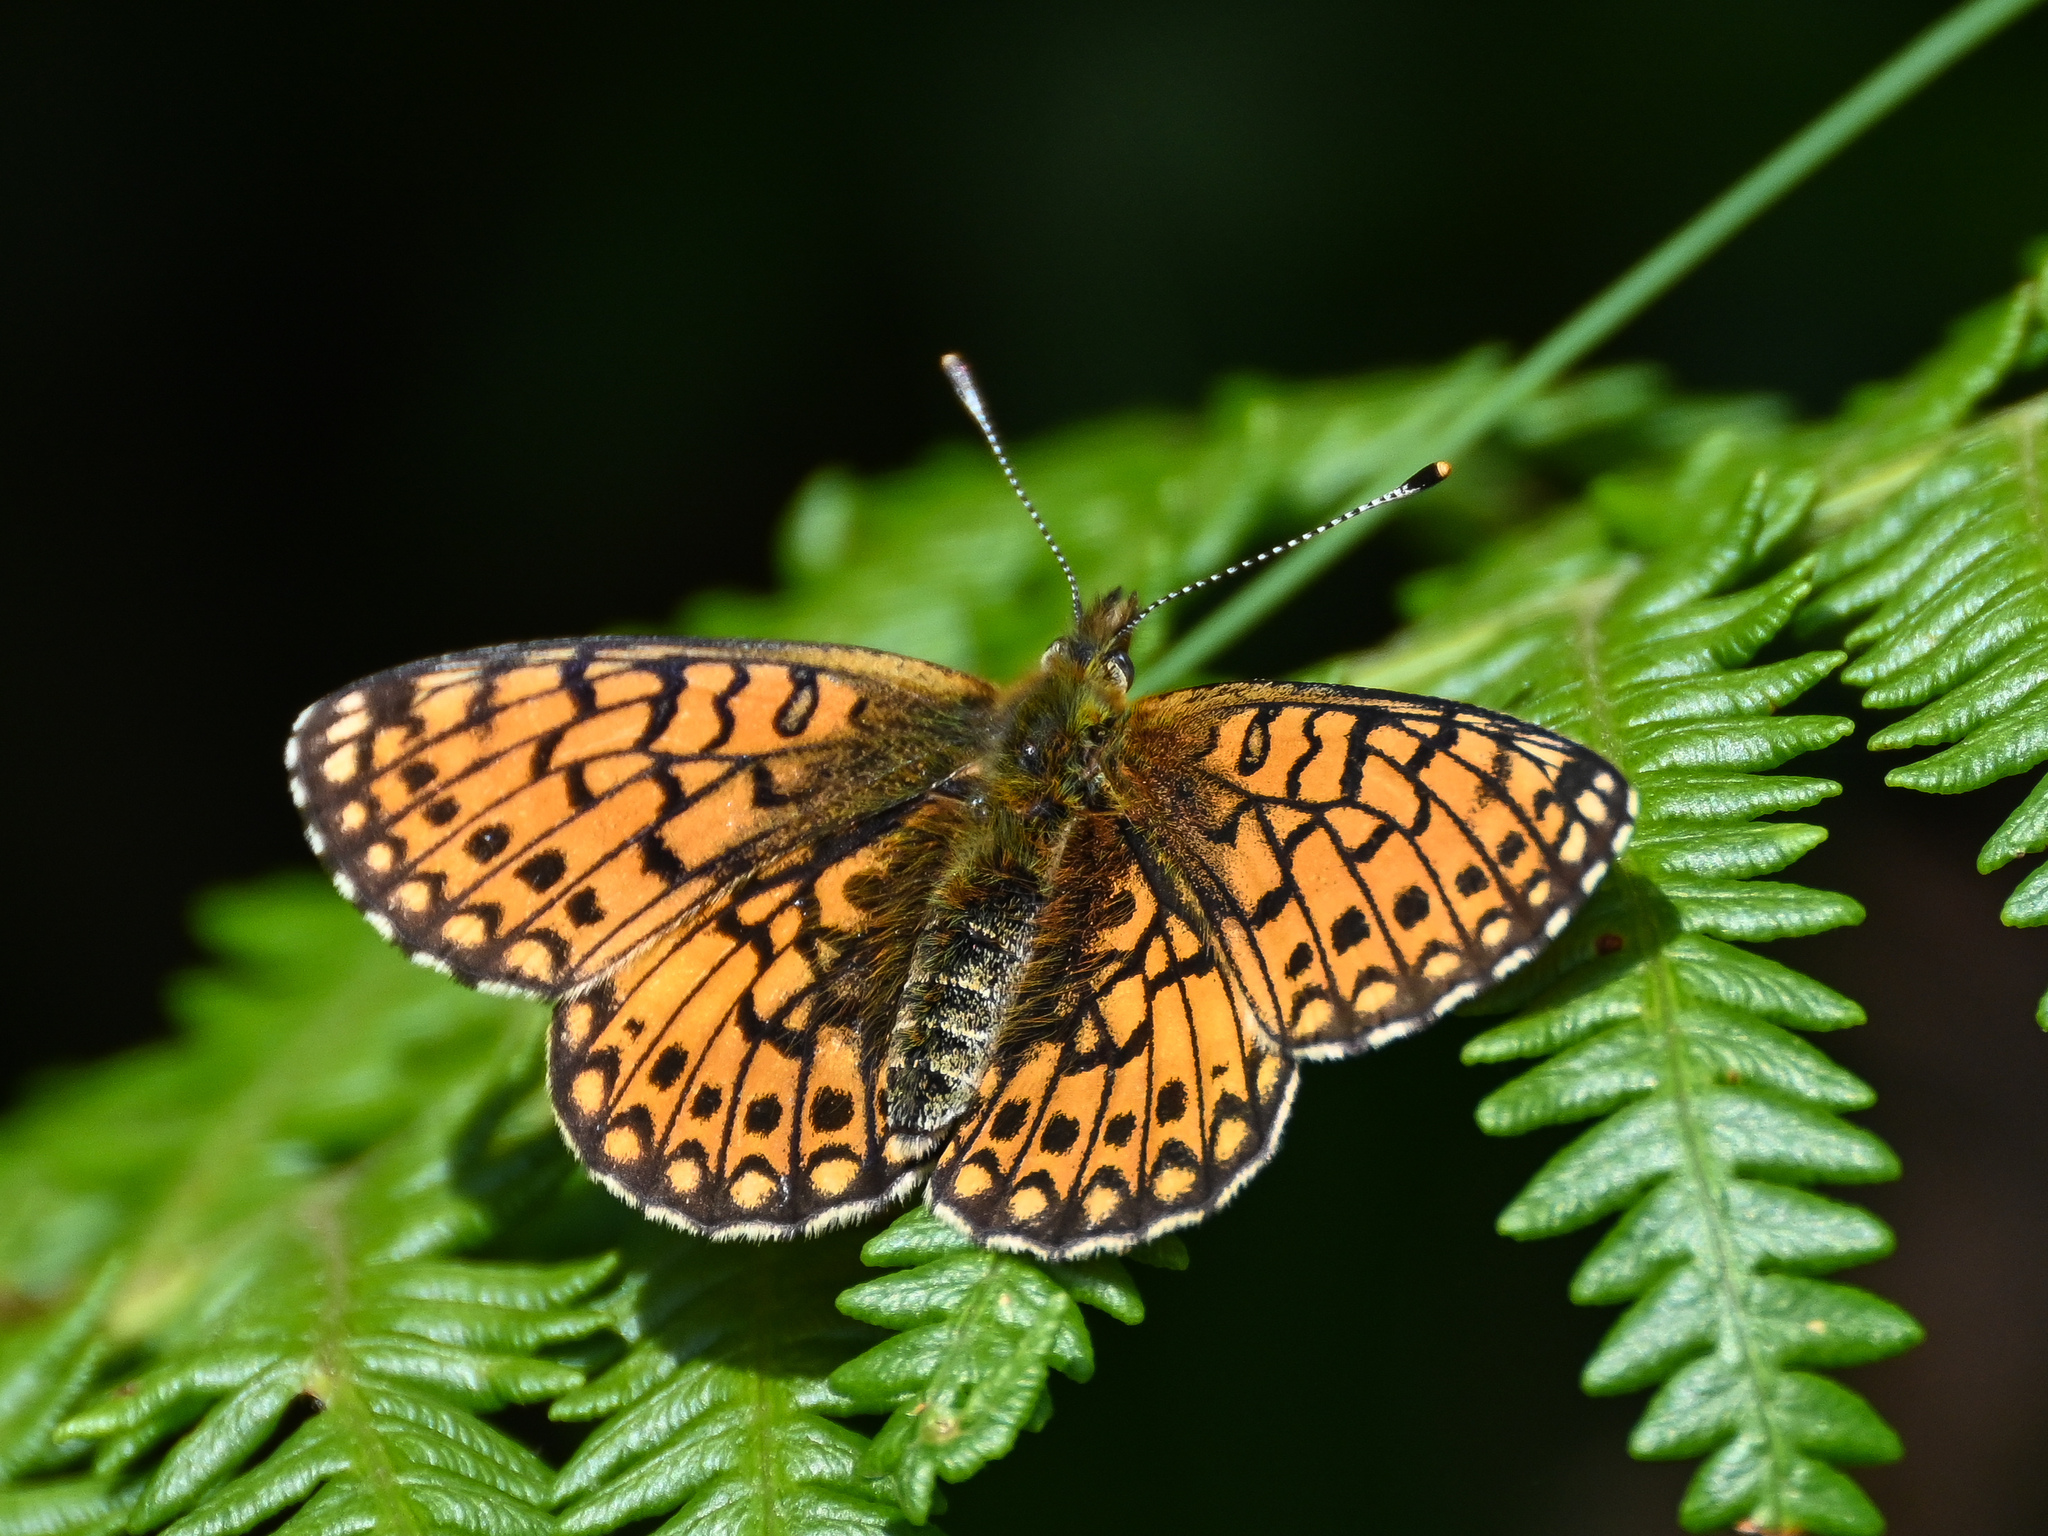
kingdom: Animalia
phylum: Arthropoda
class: Insecta
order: Lepidoptera
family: Nymphalidae
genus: Boloria
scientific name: Boloria selene
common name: Small pearl-bordered fritillary
